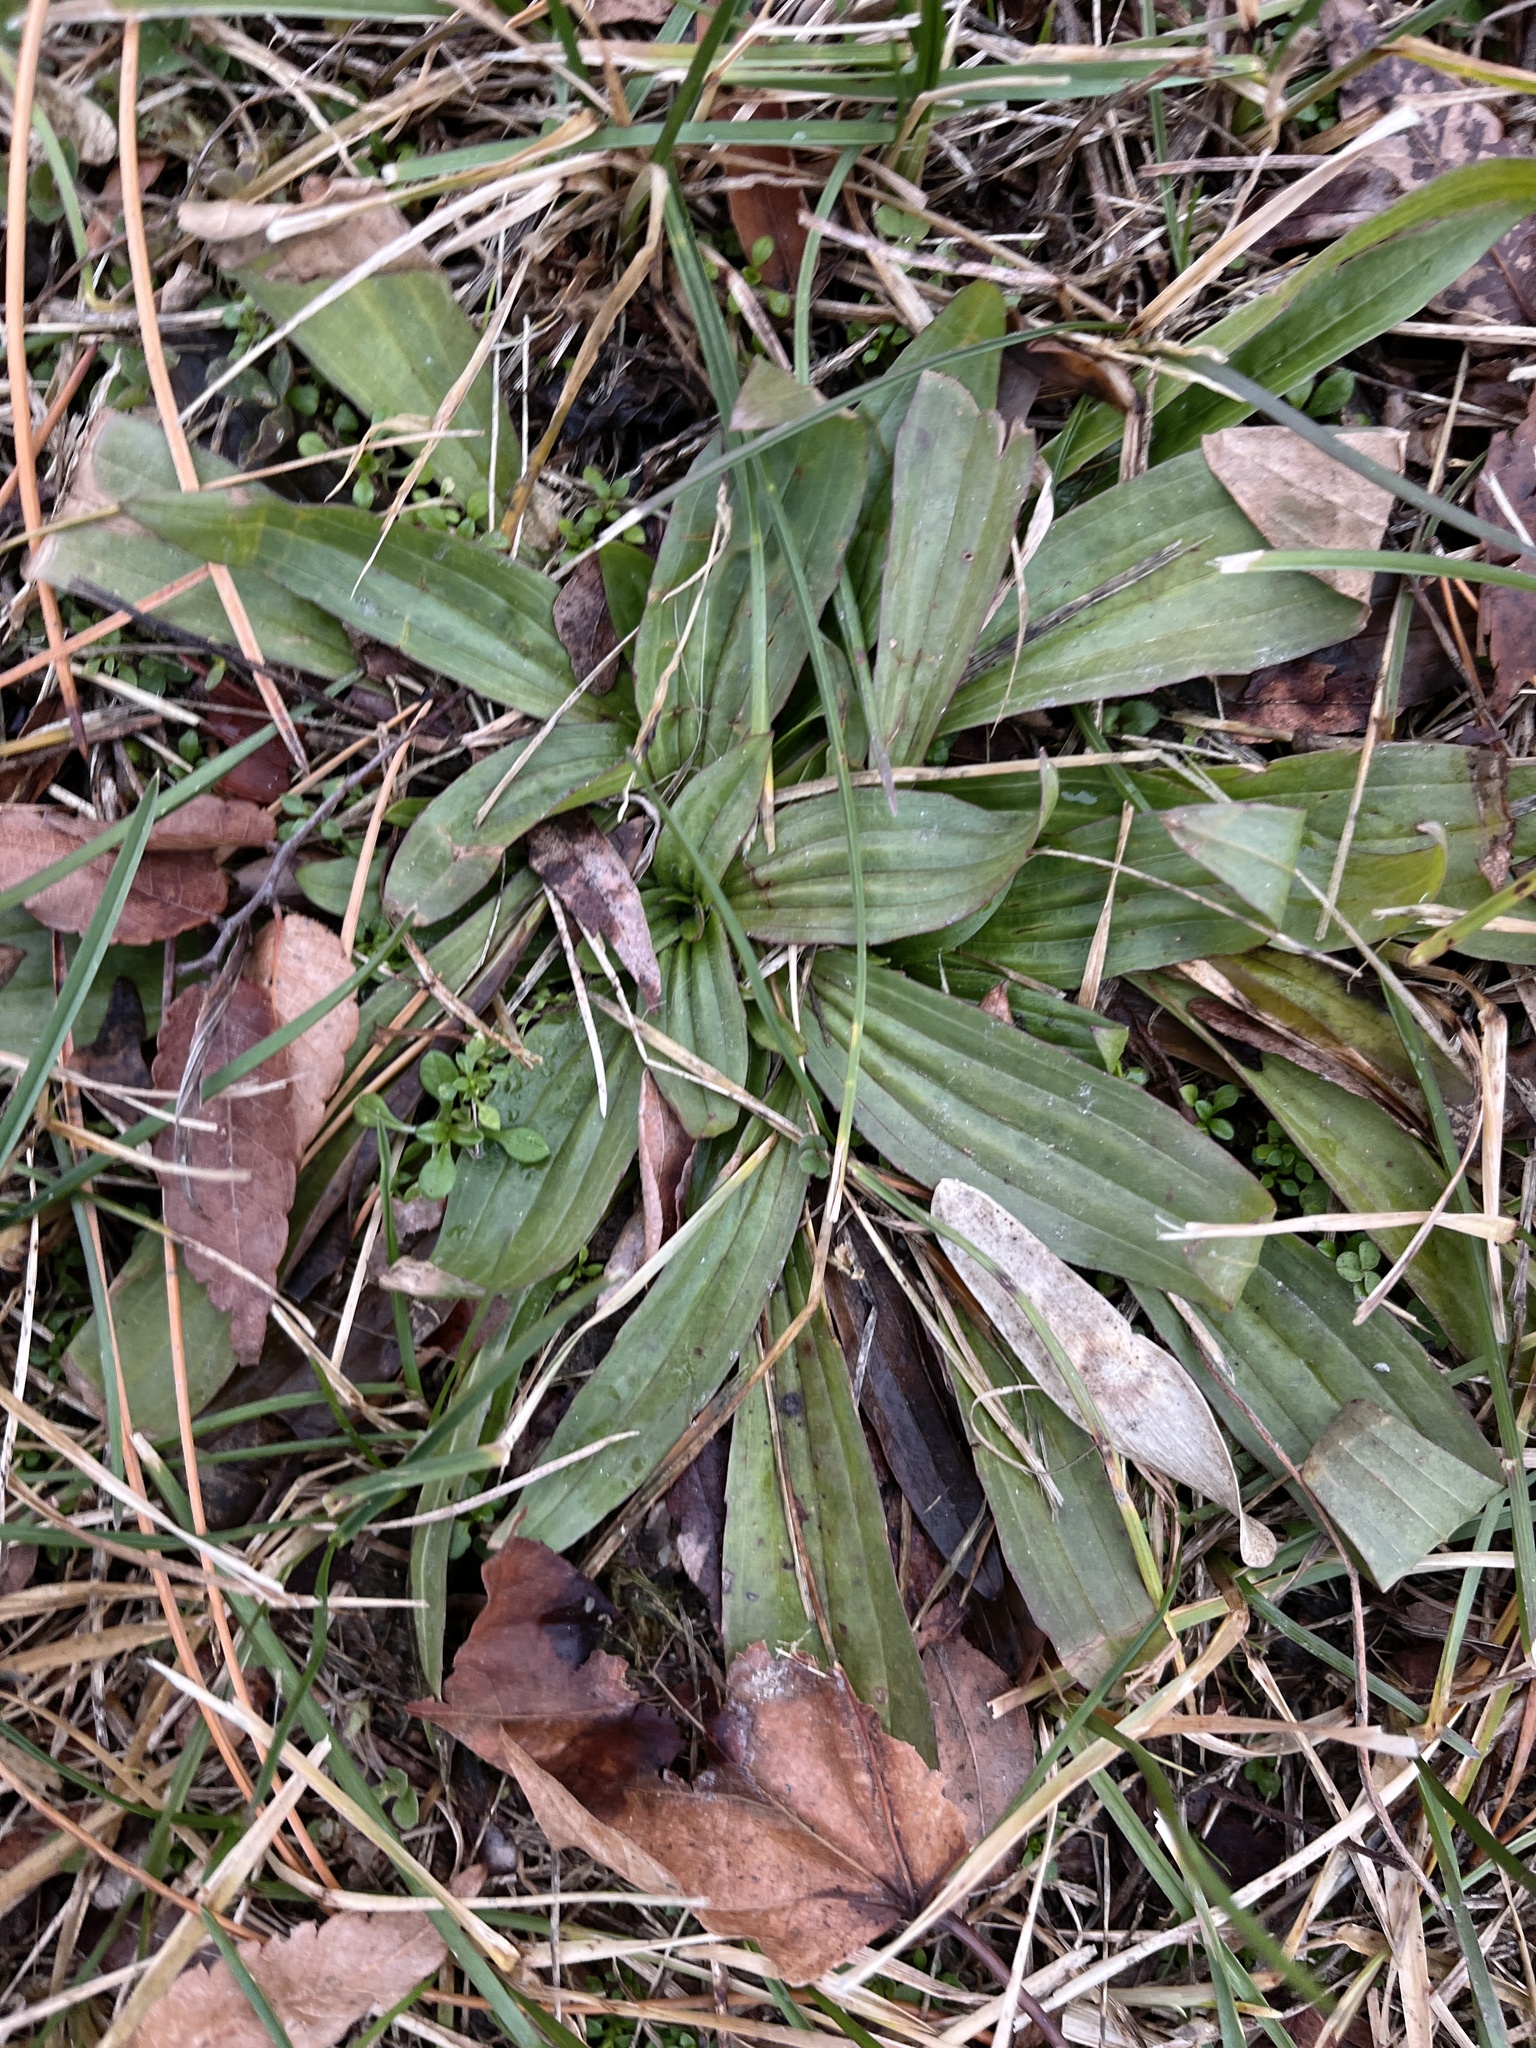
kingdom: Plantae
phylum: Tracheophyta
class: Magnoliopsida
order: Lamiales
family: Plantaginaceae
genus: Plantago
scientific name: Plantago lanceolata
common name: Ribwort plantain
